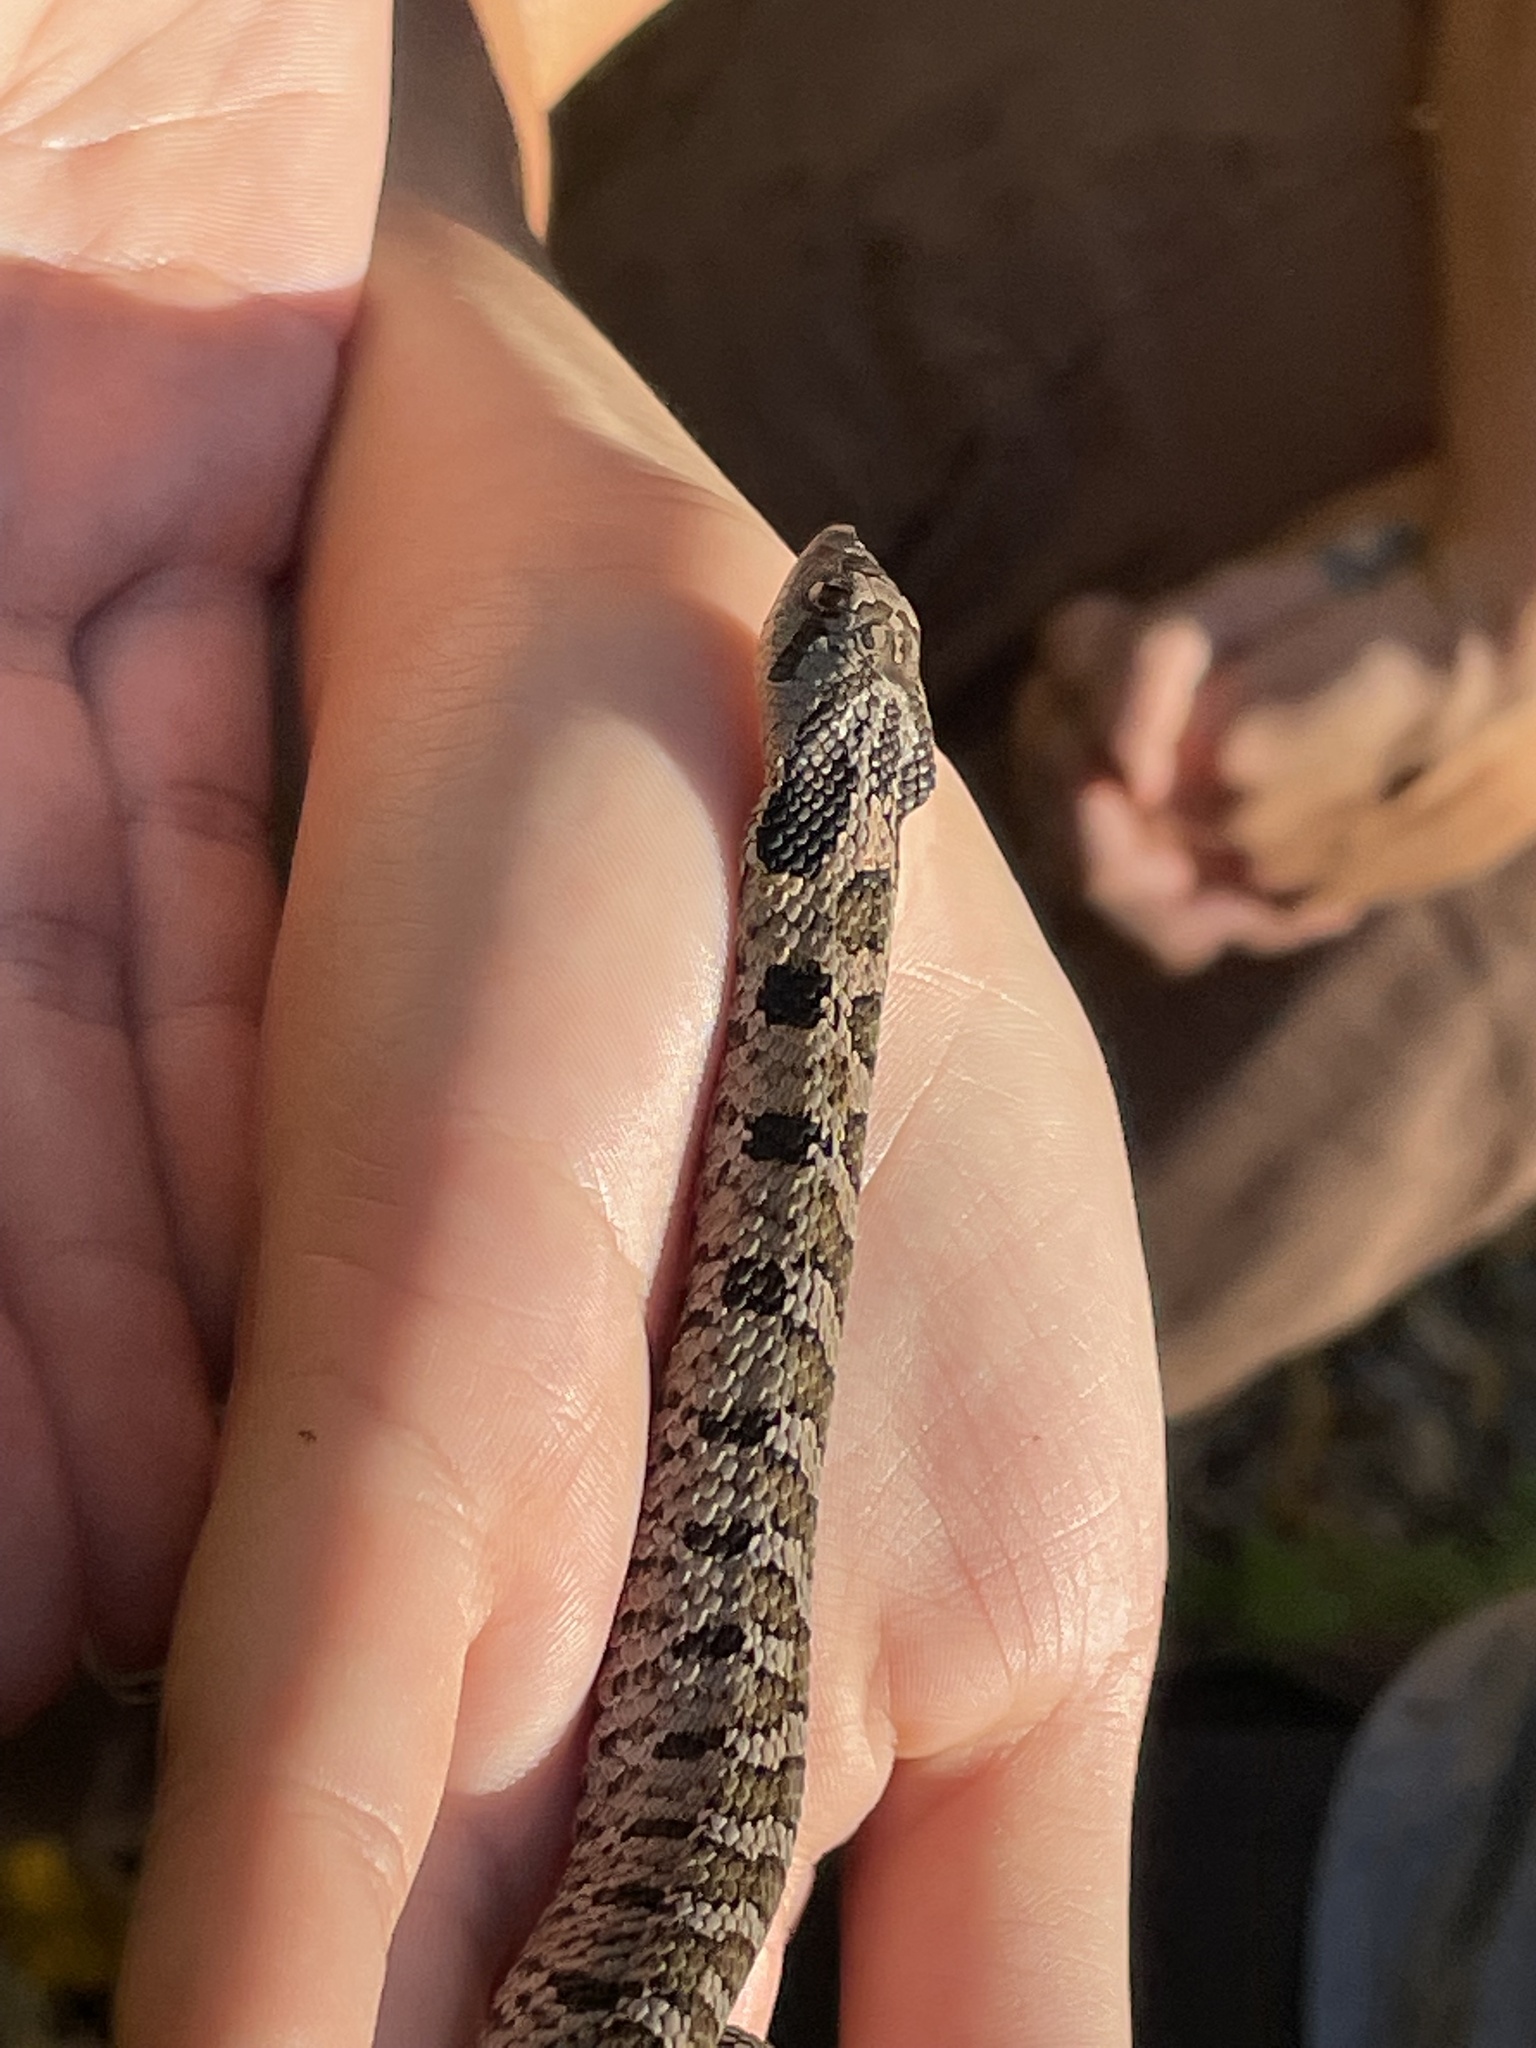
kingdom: Animalia
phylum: Chordata
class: Squamata
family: Colubridae
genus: Heterodon
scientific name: Heterodon platirhinos
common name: Eastern hognose snake
